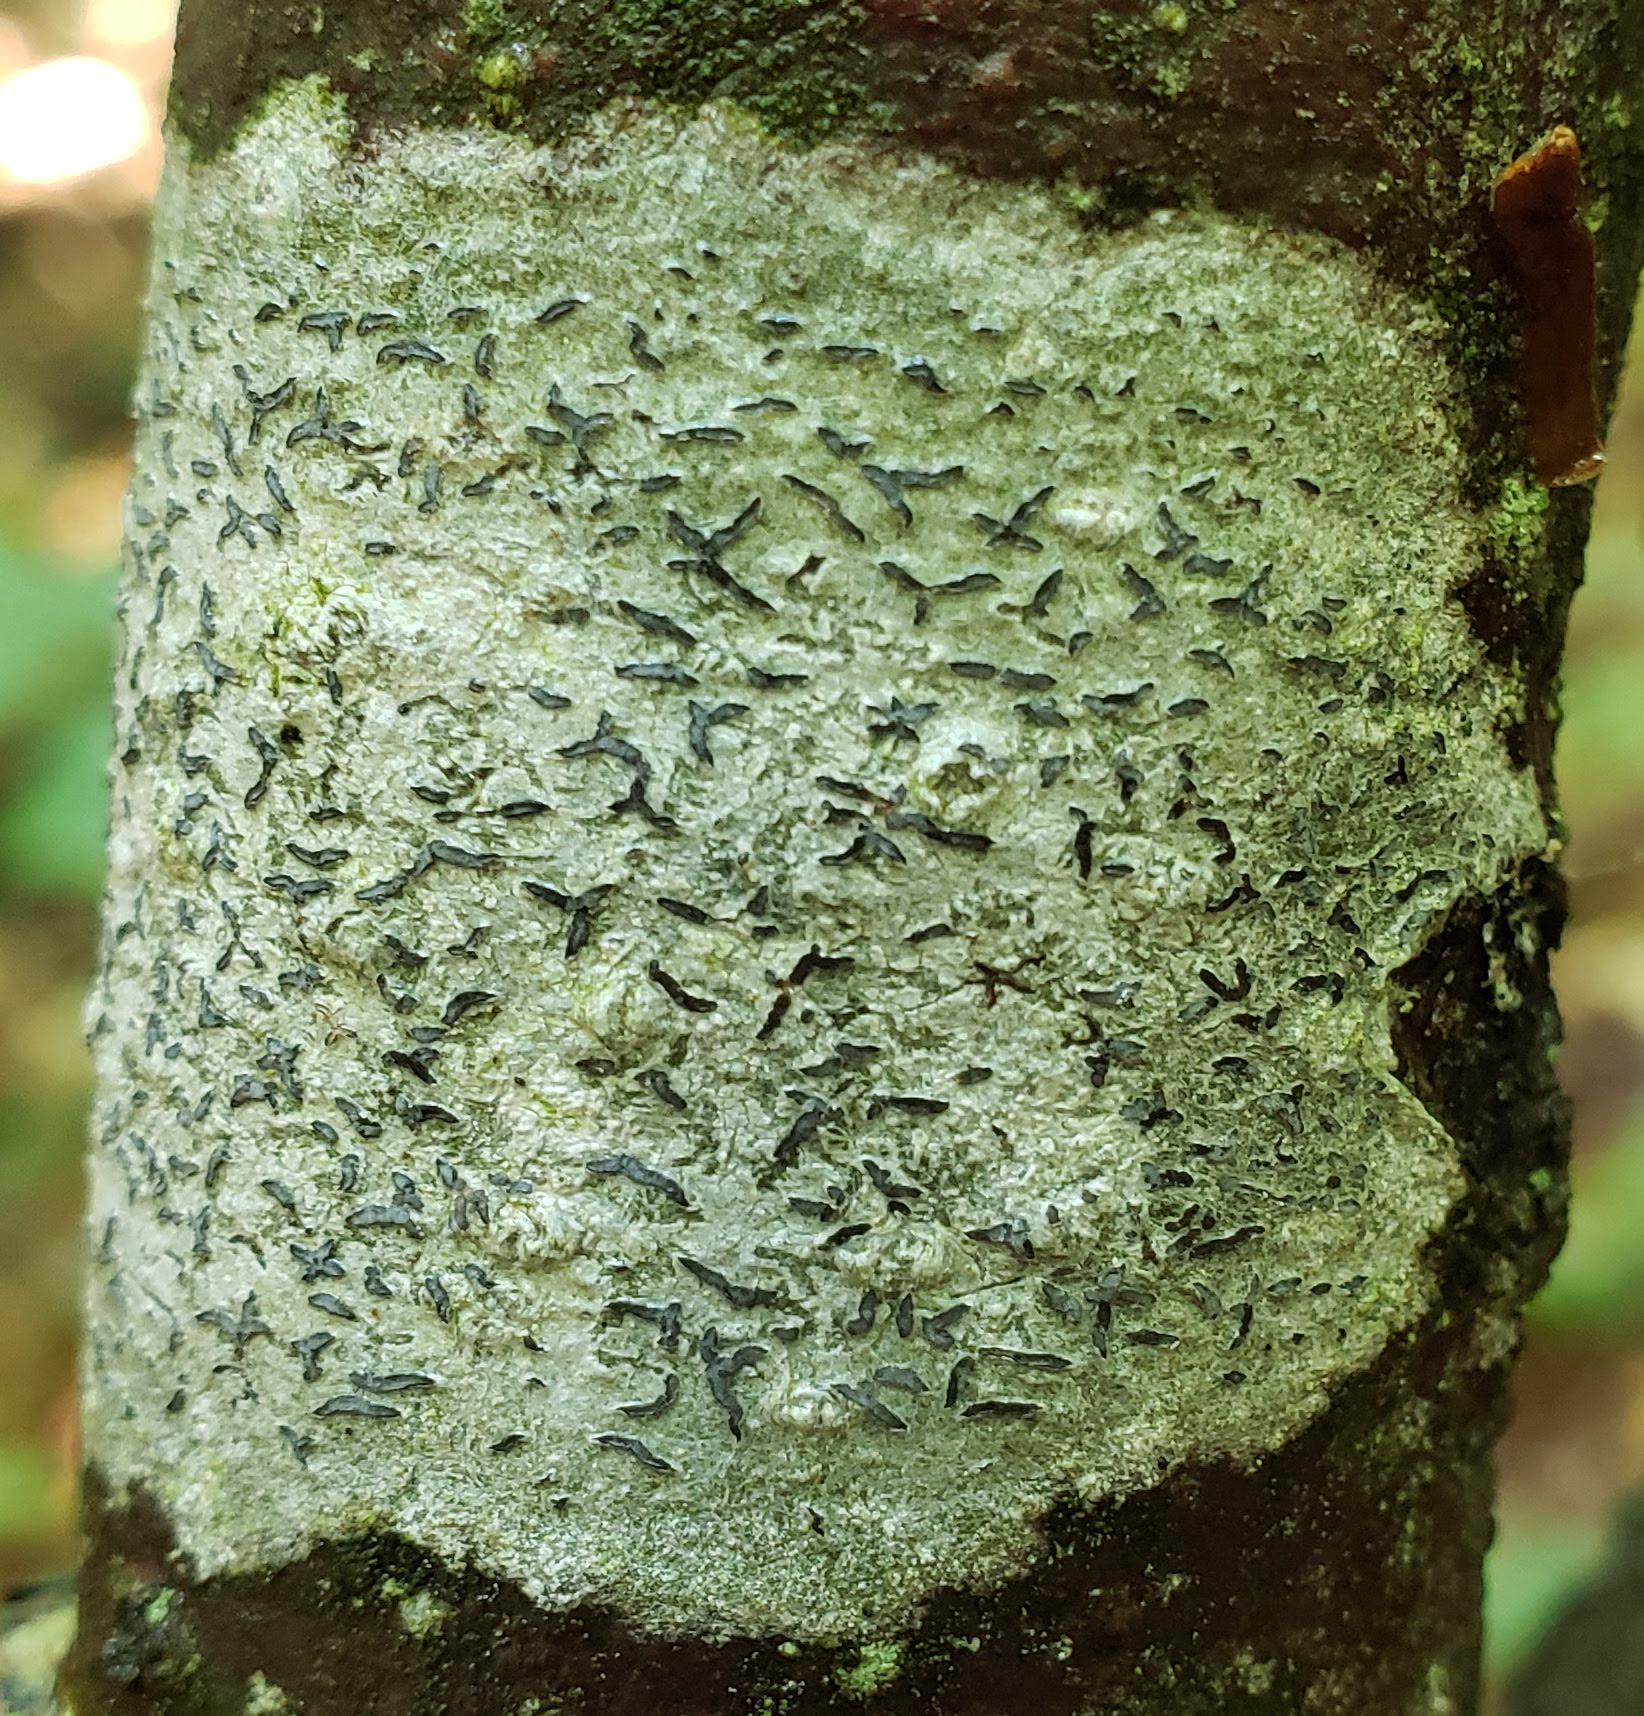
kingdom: Fungi
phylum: Ascomycota
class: Lecanoromycetes
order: Ostropales
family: Graphidaceae
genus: Graphis
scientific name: Graphis scripta
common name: Script lichen
